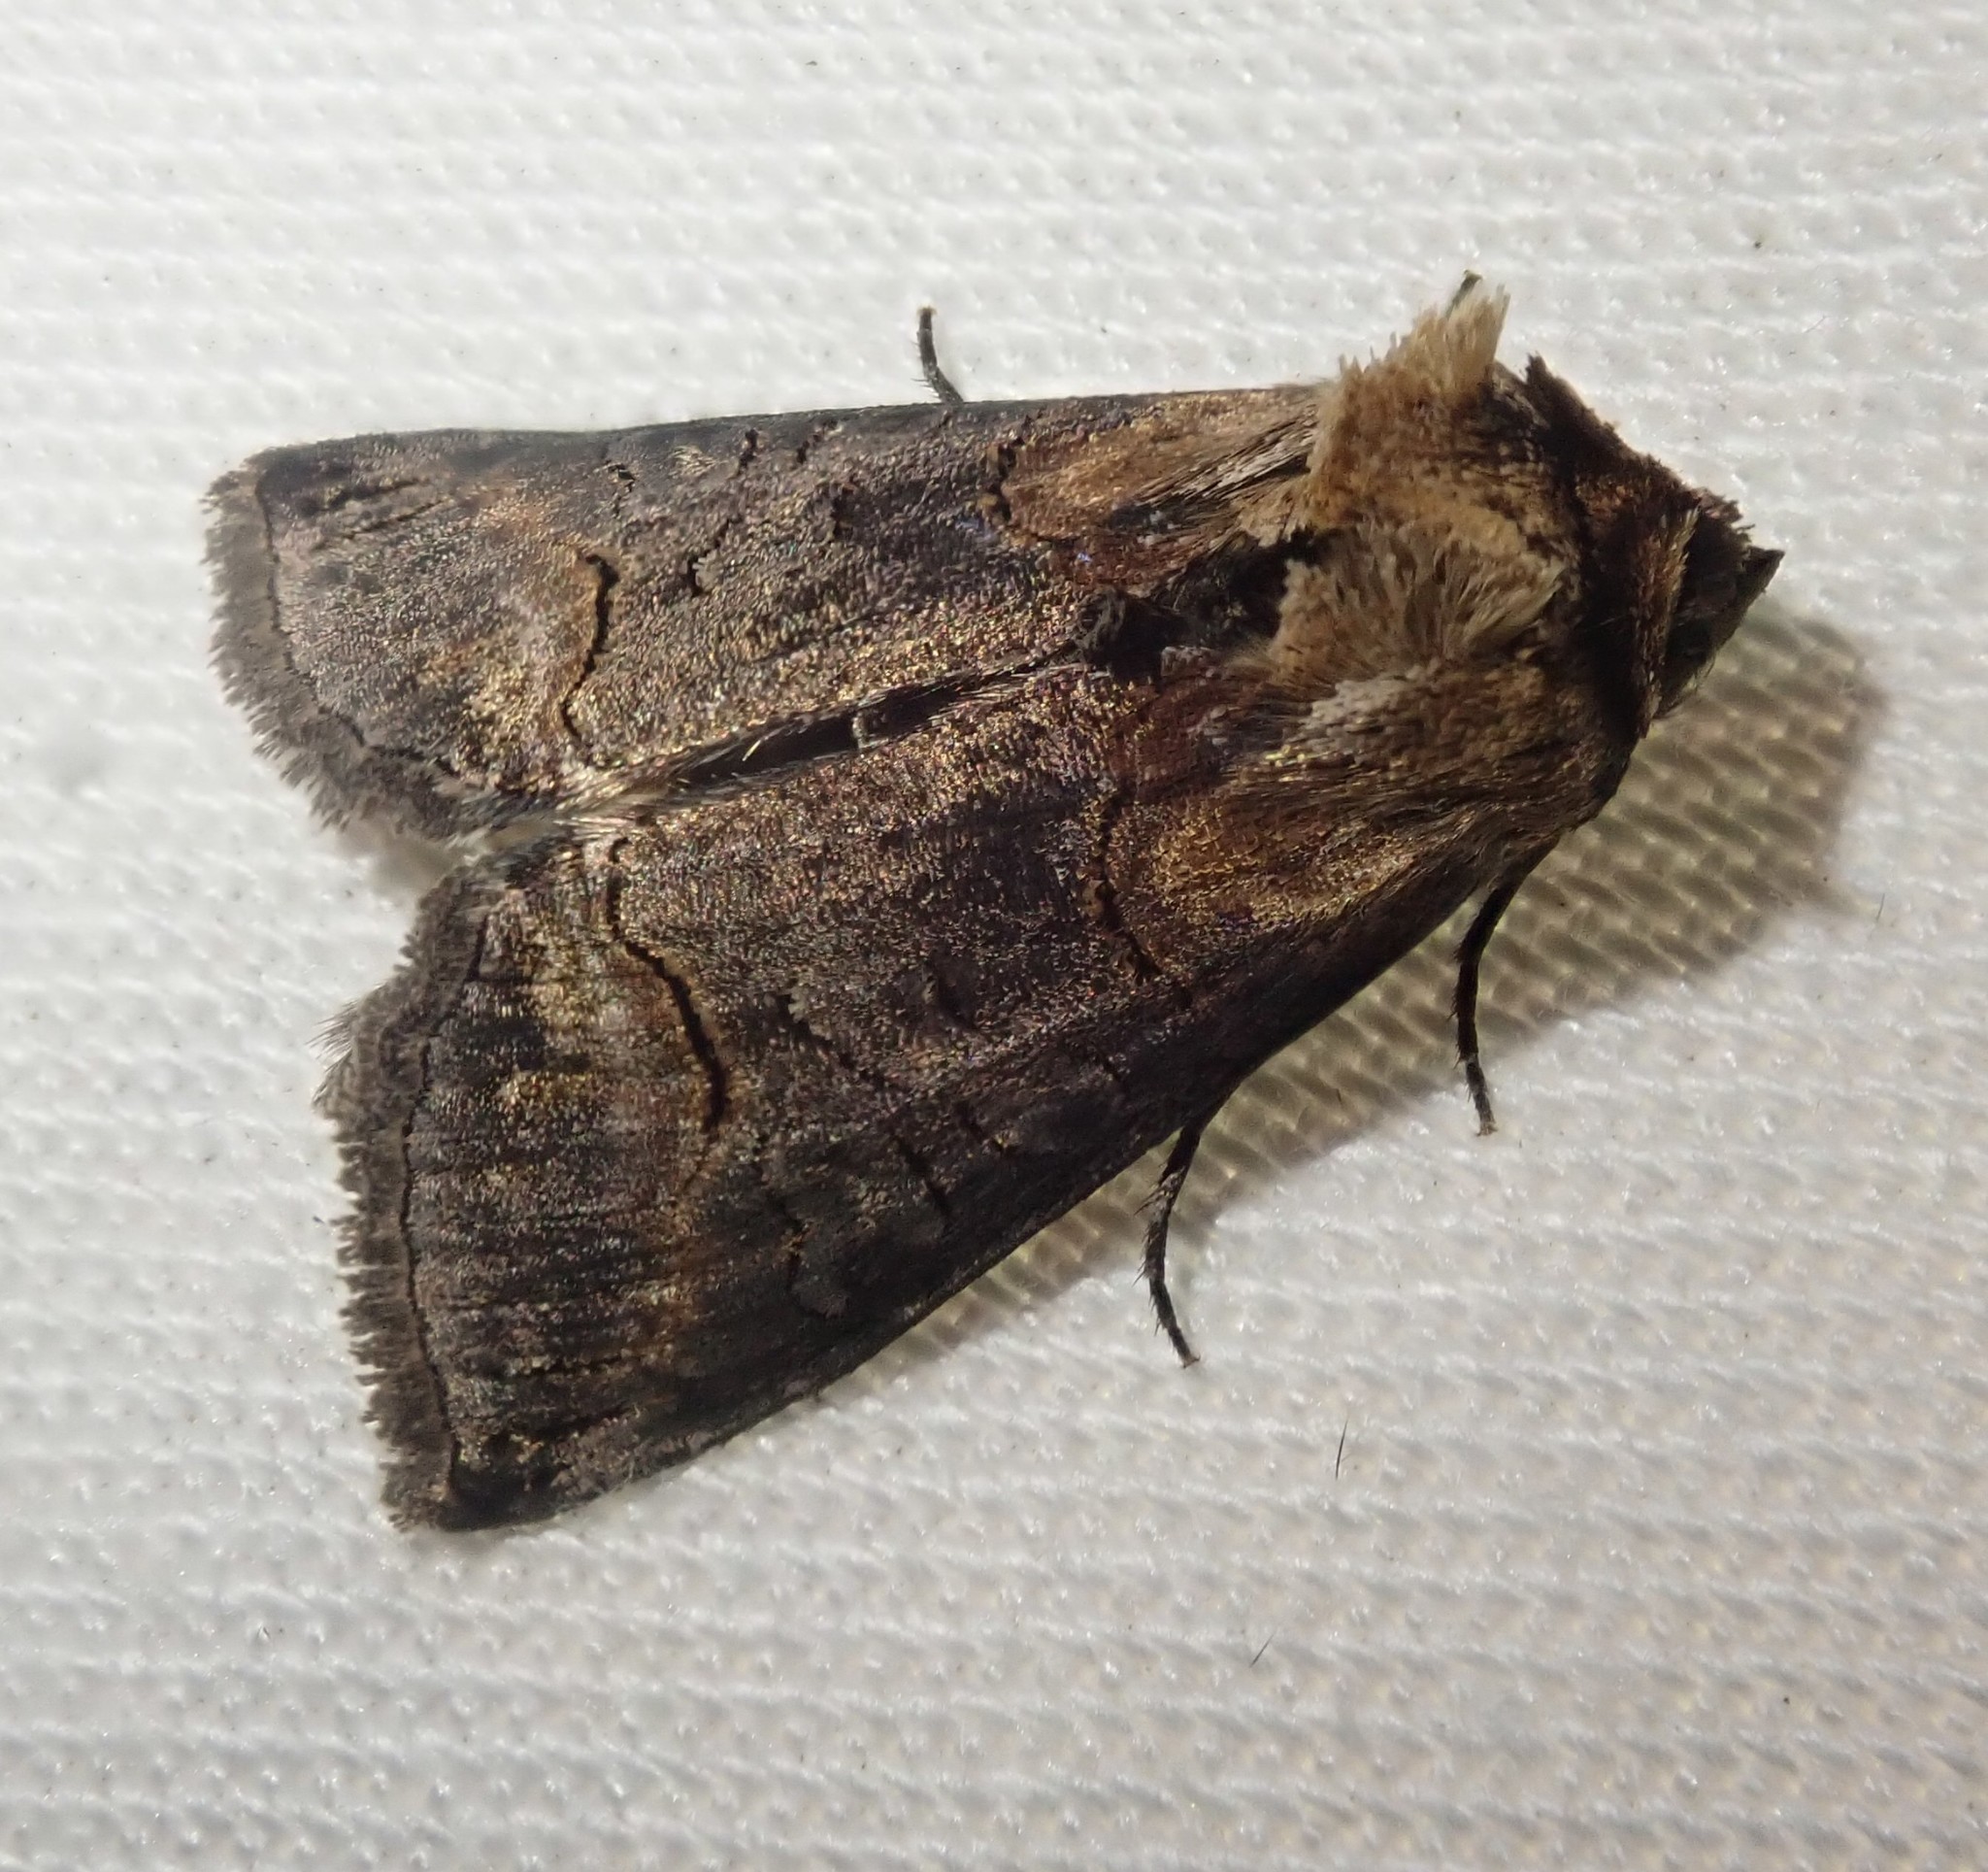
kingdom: Animalia
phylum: Arthropoda
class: Insecta
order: Lepidoptera
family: Noctuidae
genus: Abrostola
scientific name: Abrostola triplasia
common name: Dark spectacle
